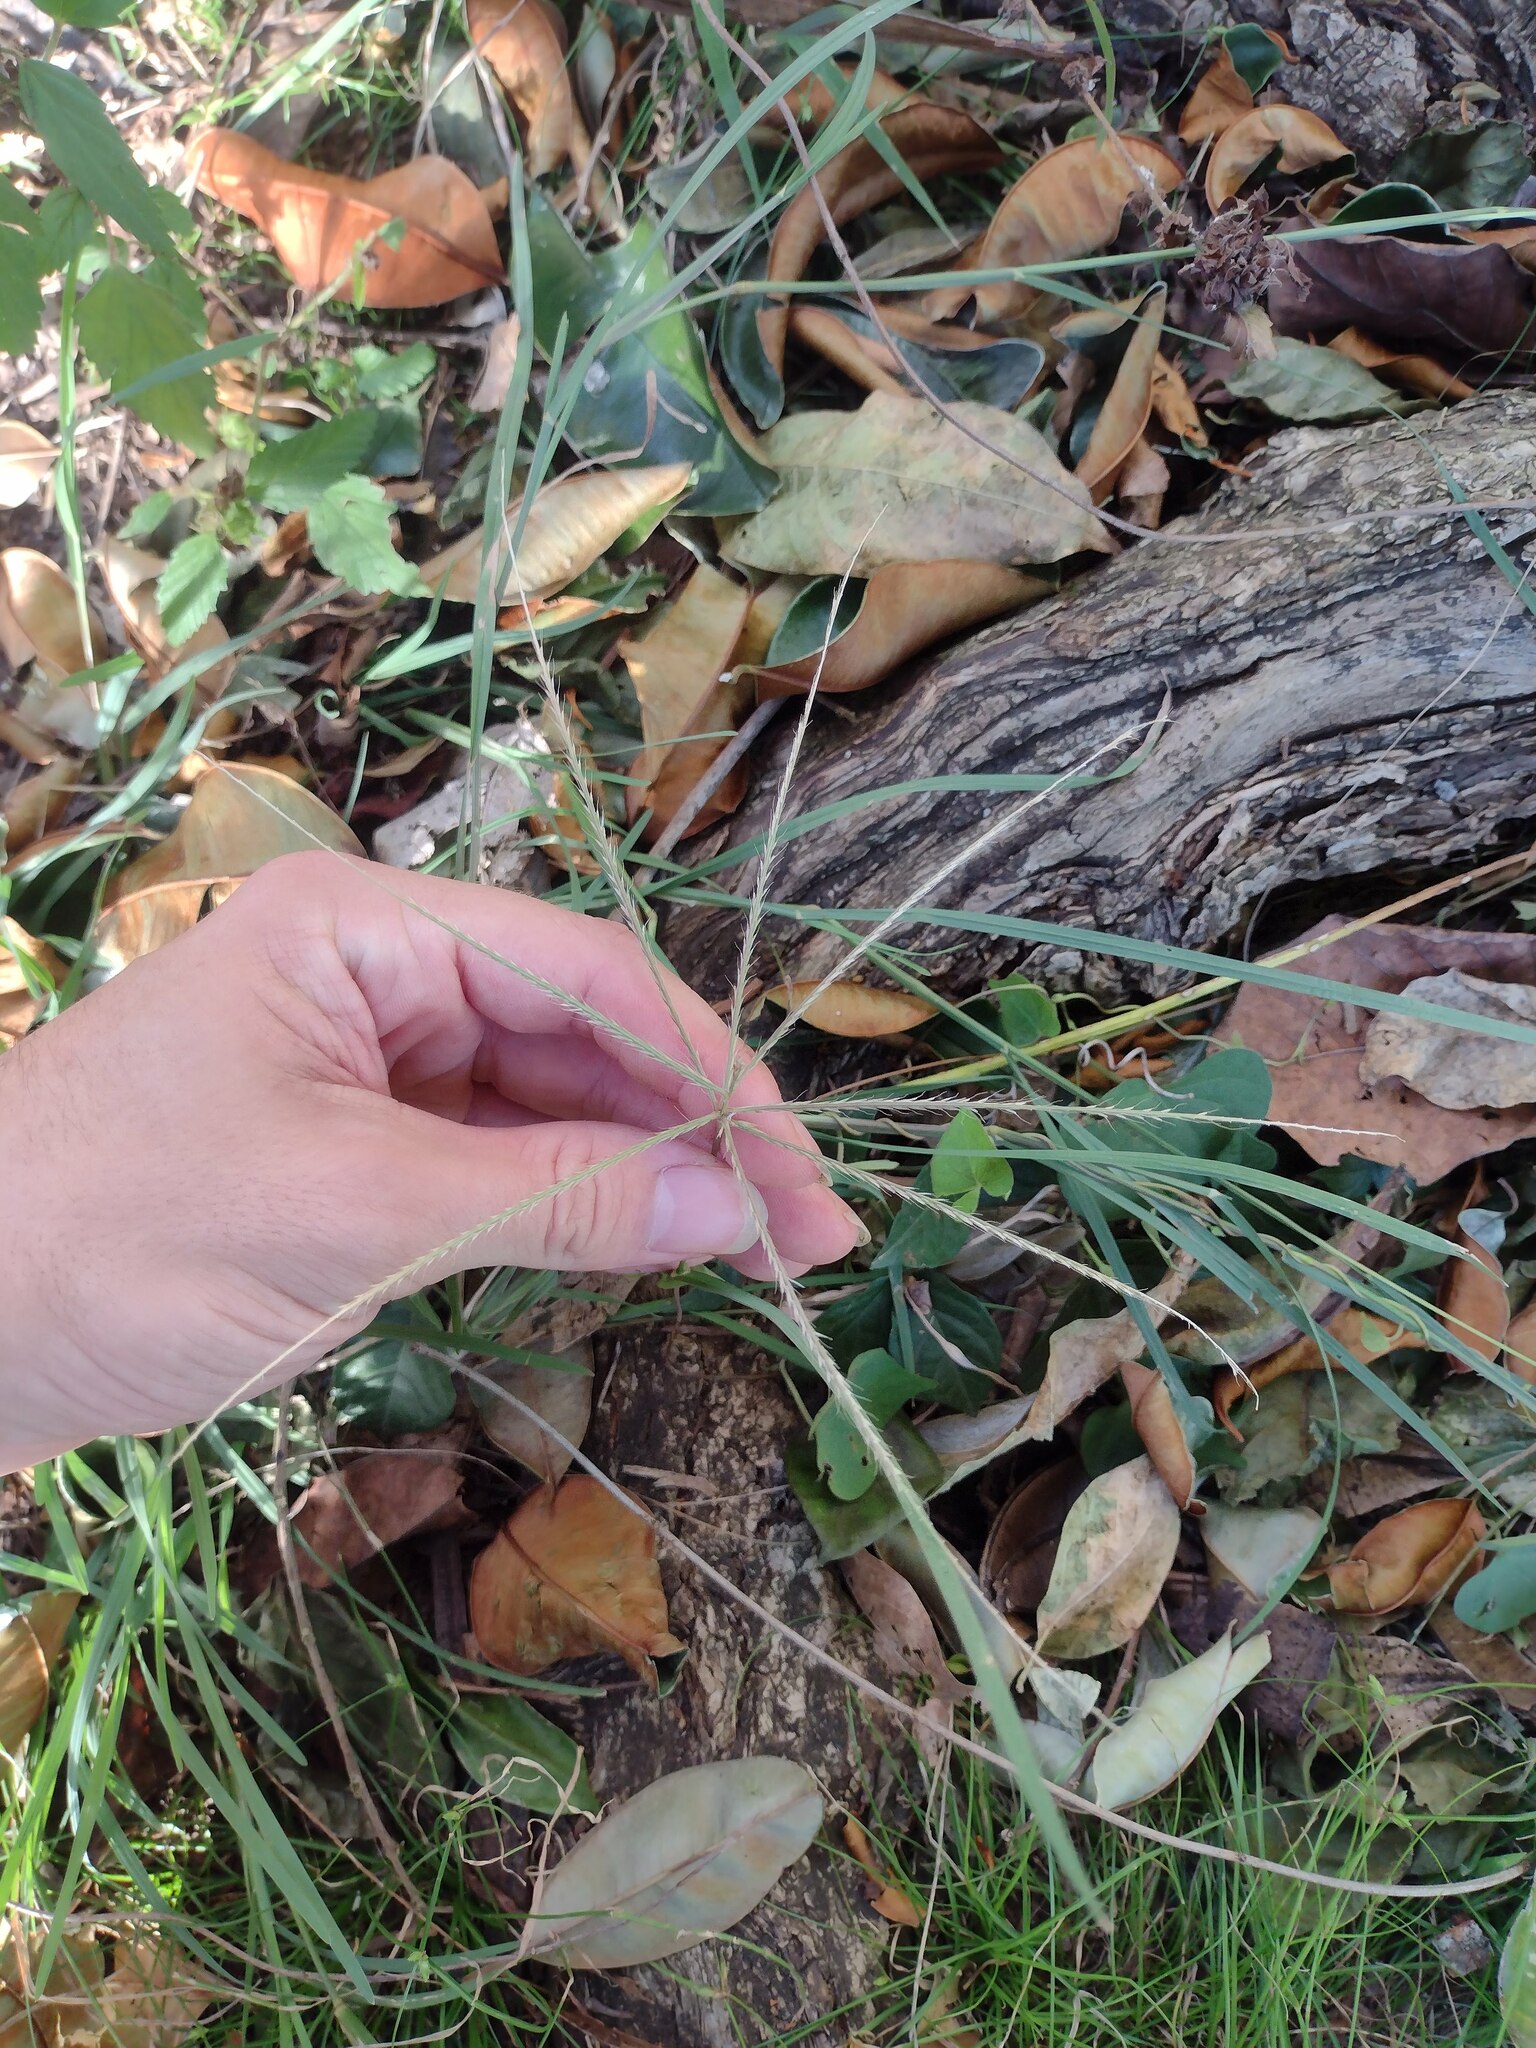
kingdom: Plantae
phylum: Tracheophyta
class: Liliopsida
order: Poales
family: Poaceae
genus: Cynodon
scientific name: Cynodon dactylon
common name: Bermuda grass
